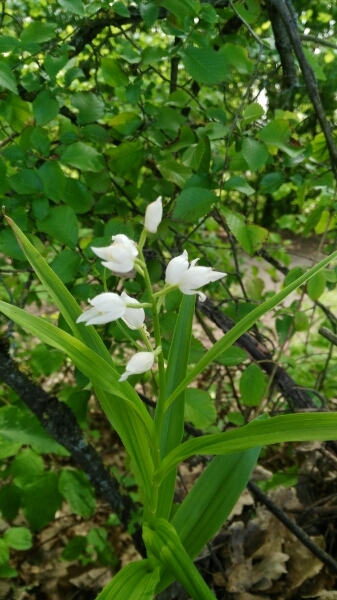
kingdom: Plantae
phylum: Tracheophyta
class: Liliopsida
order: Asparagales
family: Orchidaceae
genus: Cephalanthera
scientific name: Cephalanthera longifolia
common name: Narrow-leaved helleborine
